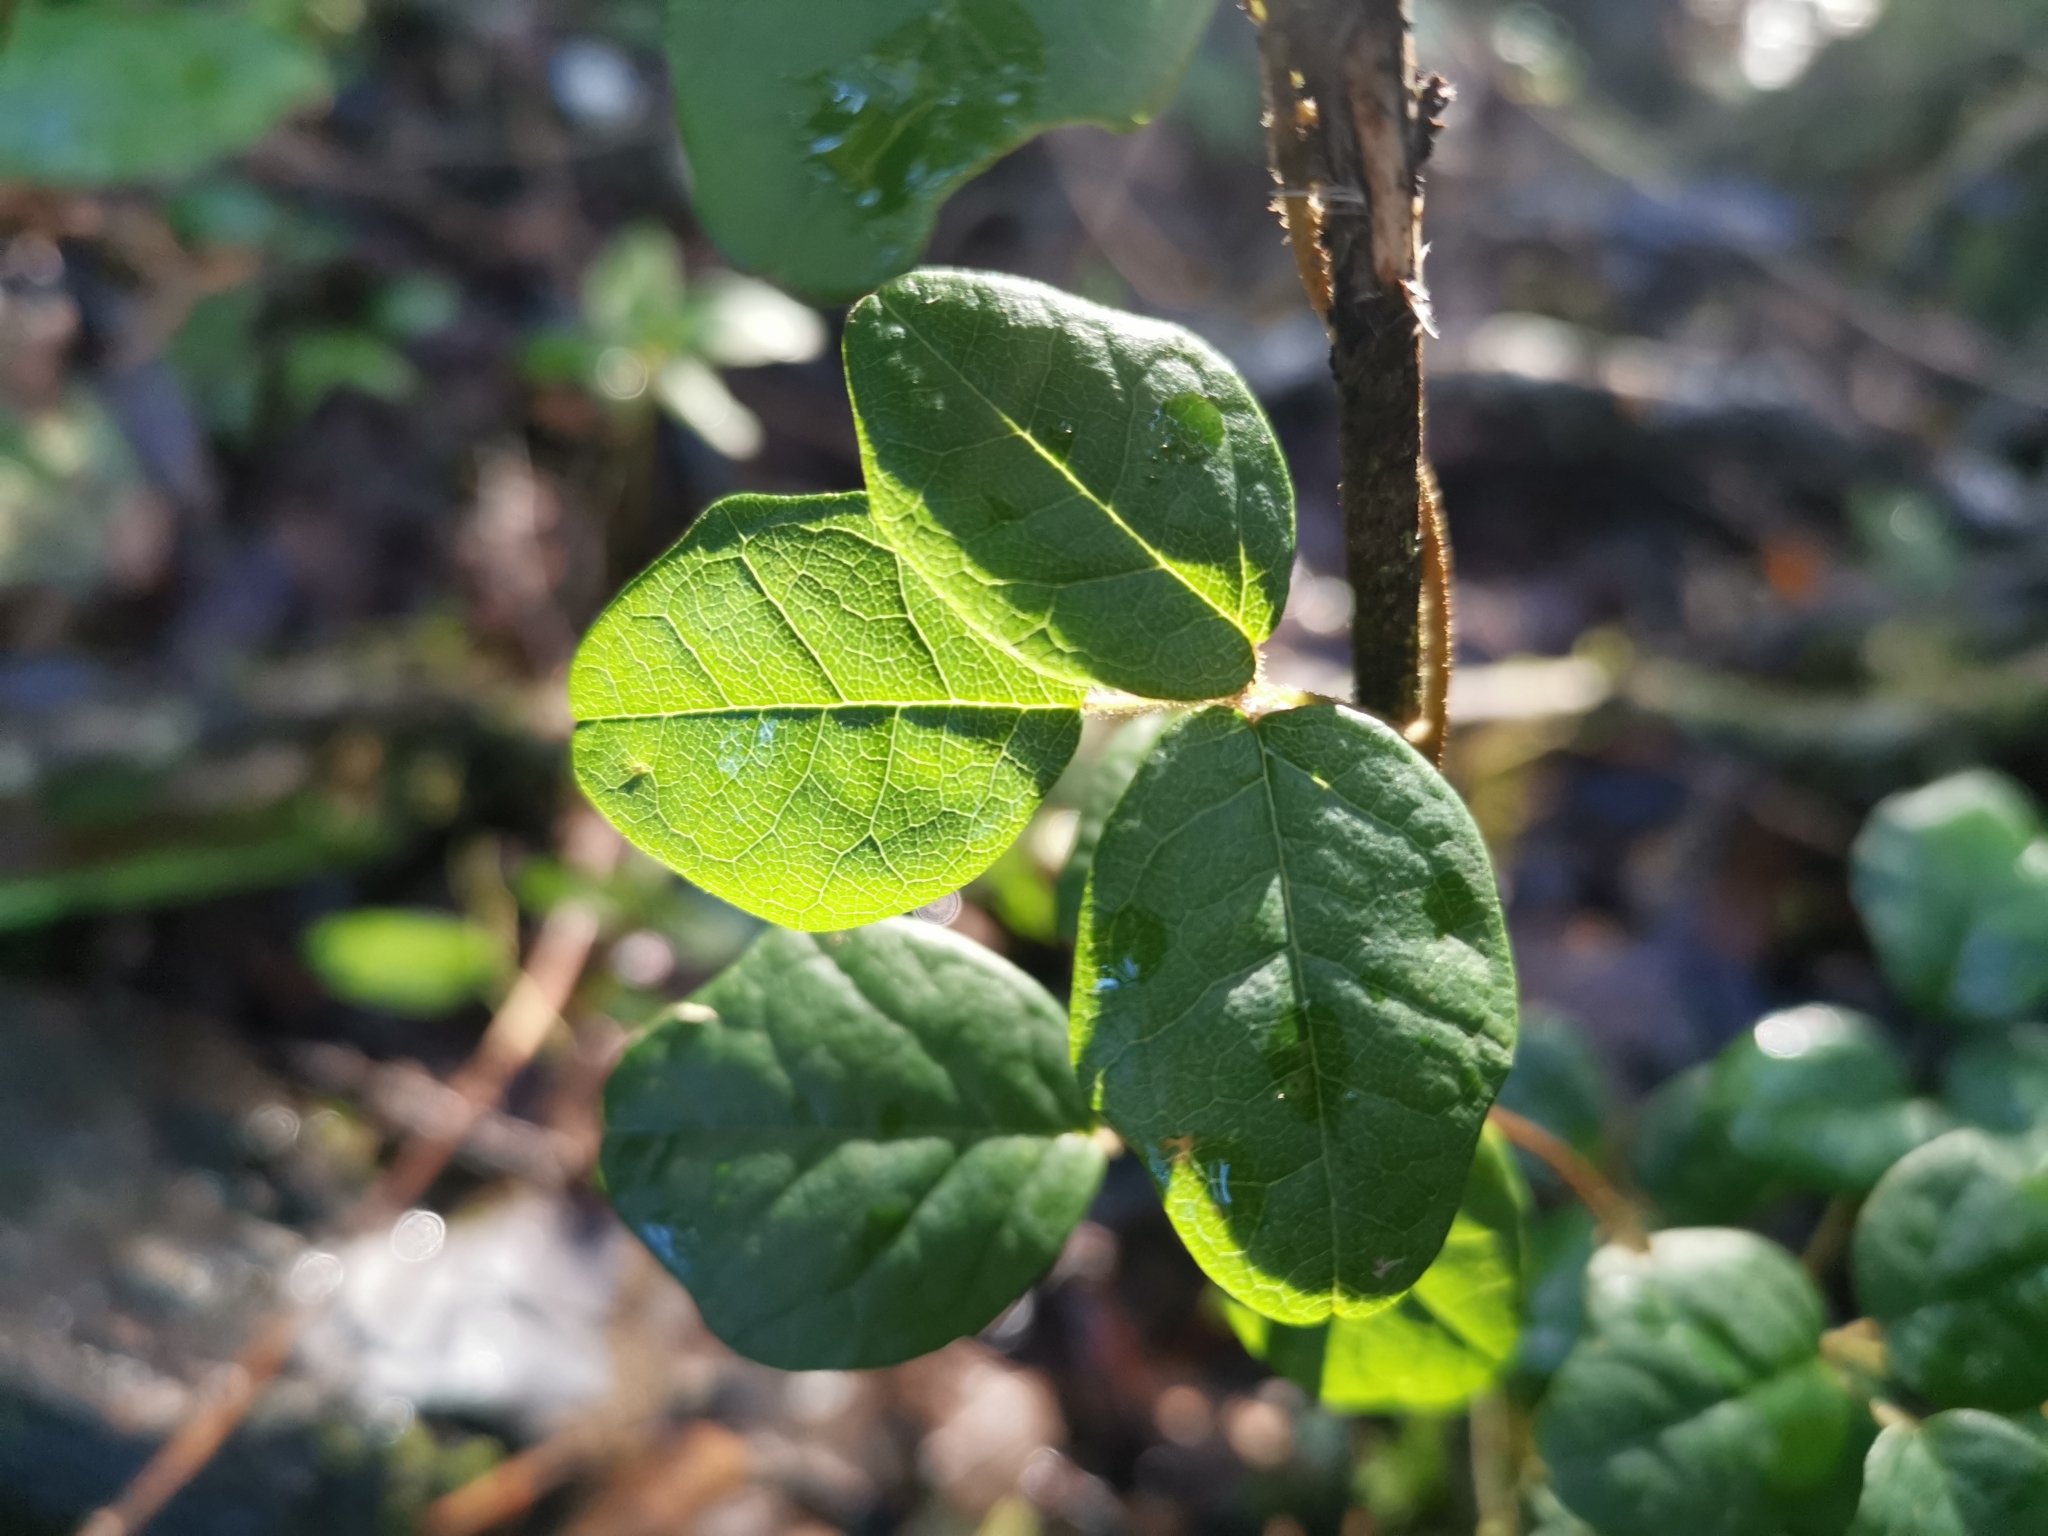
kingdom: Plantae
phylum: Tracheophyta
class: Magnoliopsida
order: Ranunculales
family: Lardizabalaceae
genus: Boquila
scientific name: Boquila trifoliolata
